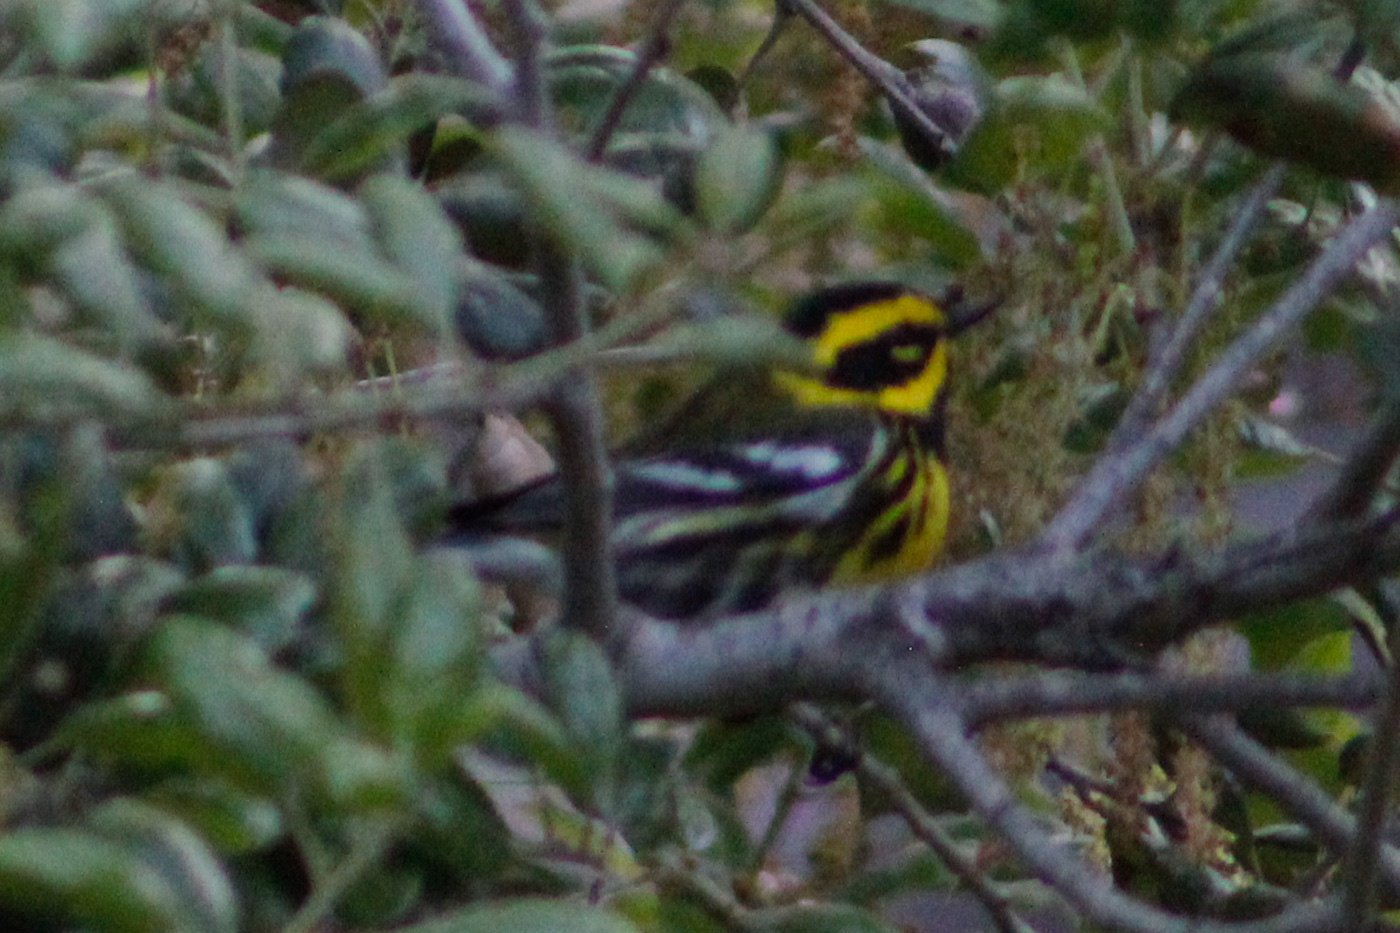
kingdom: Animalia
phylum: Chordata
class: Aves
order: Passeriformes
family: Parulidae
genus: Setophaga
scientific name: Setophaga townsendi
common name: Townsend's warbler
